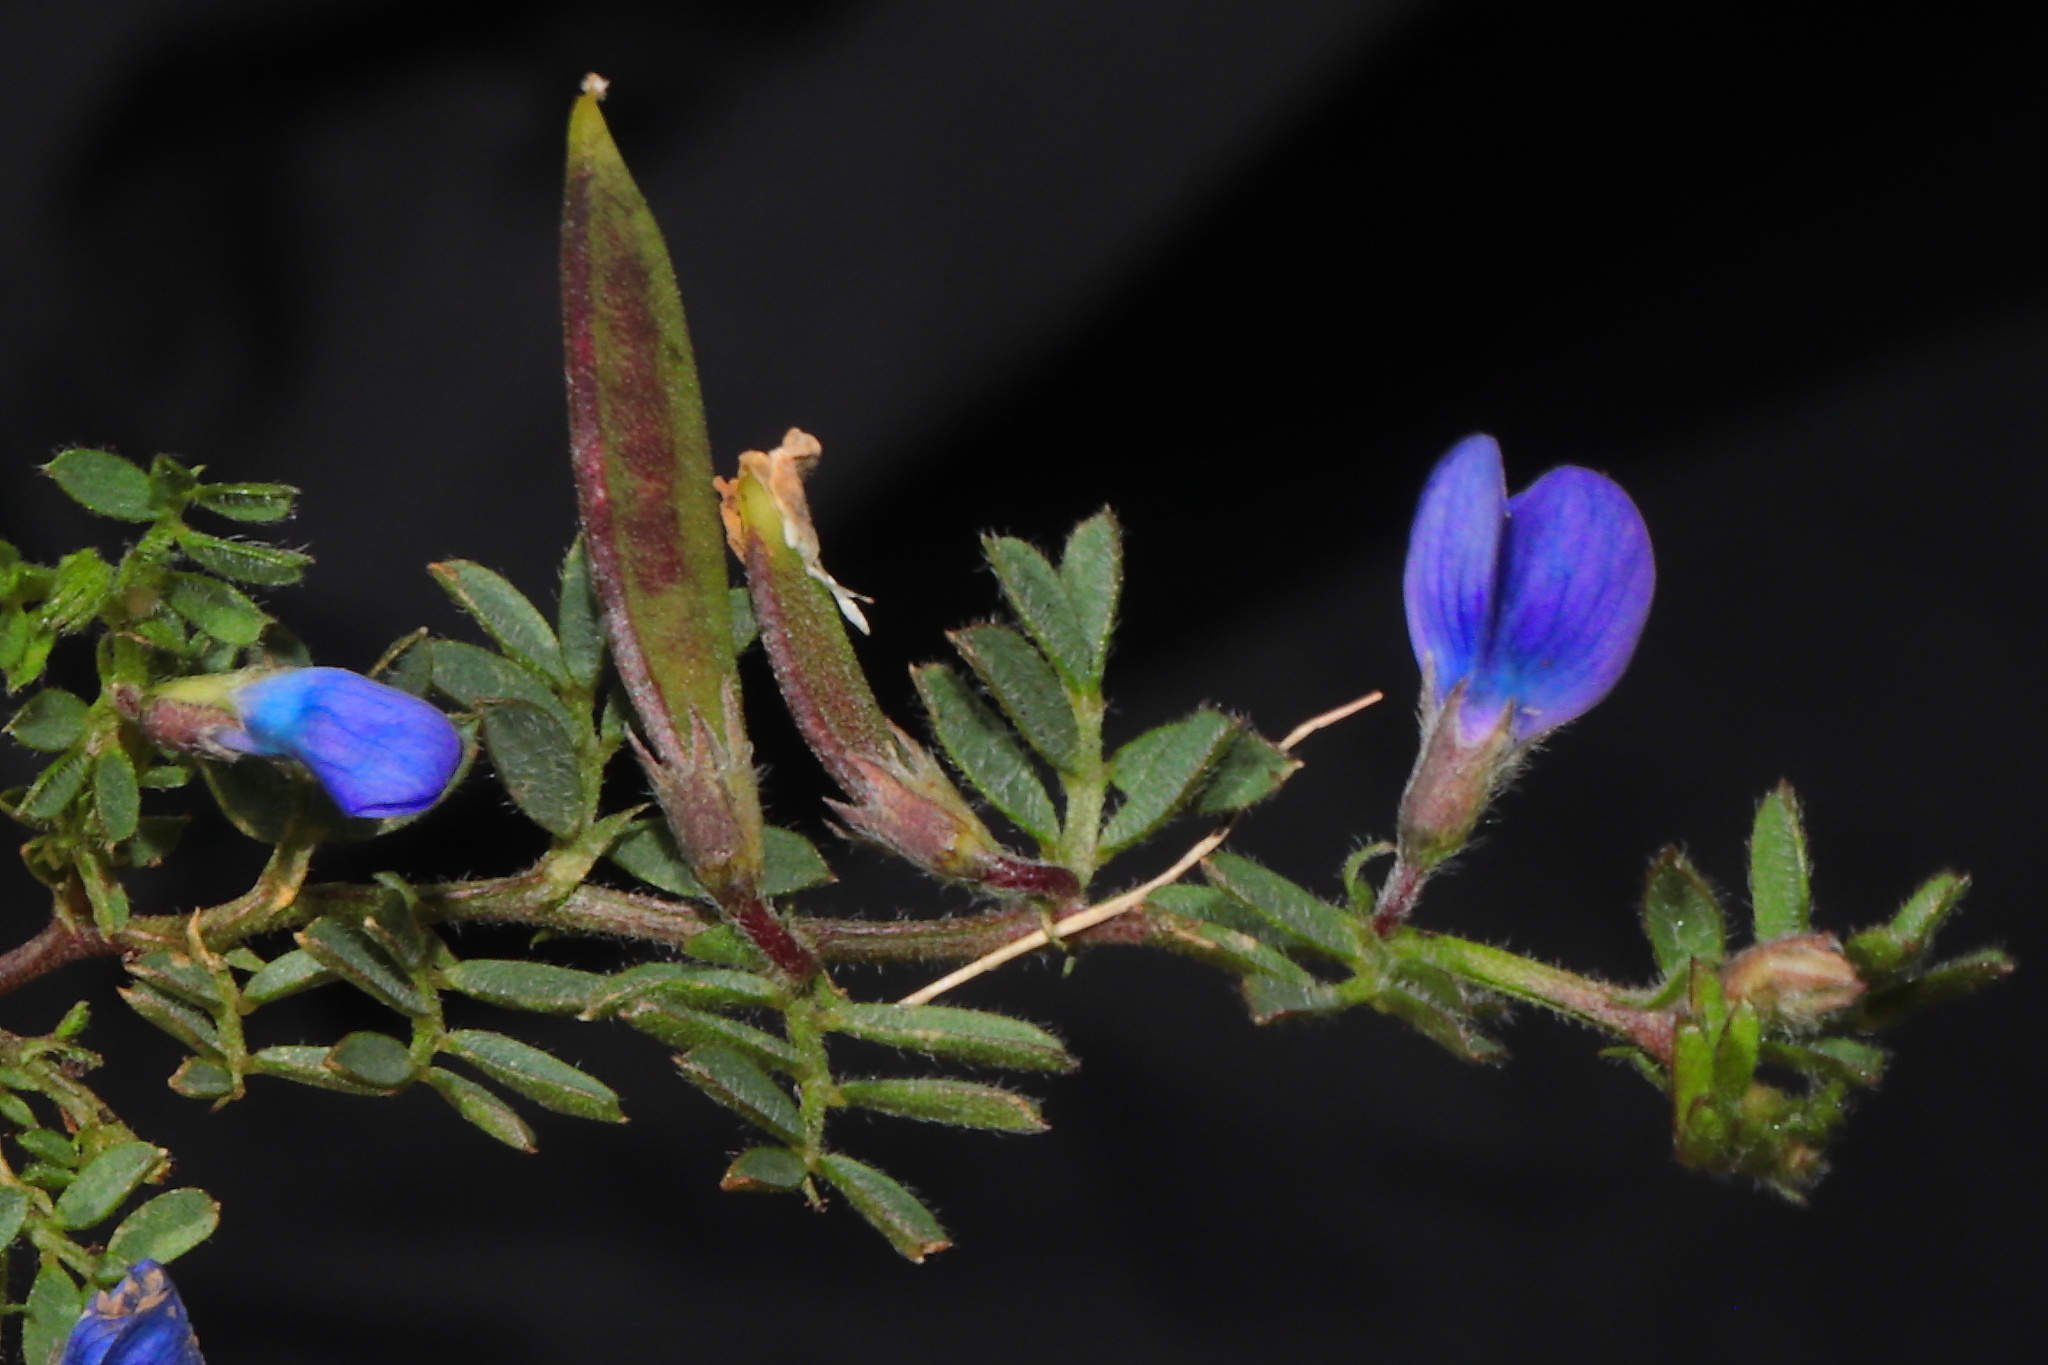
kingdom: Plantae
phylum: Tracheophyta
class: Magnoliopsida
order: Fabales
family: Fabaceae
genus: Vicia
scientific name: Vicia peruviana
